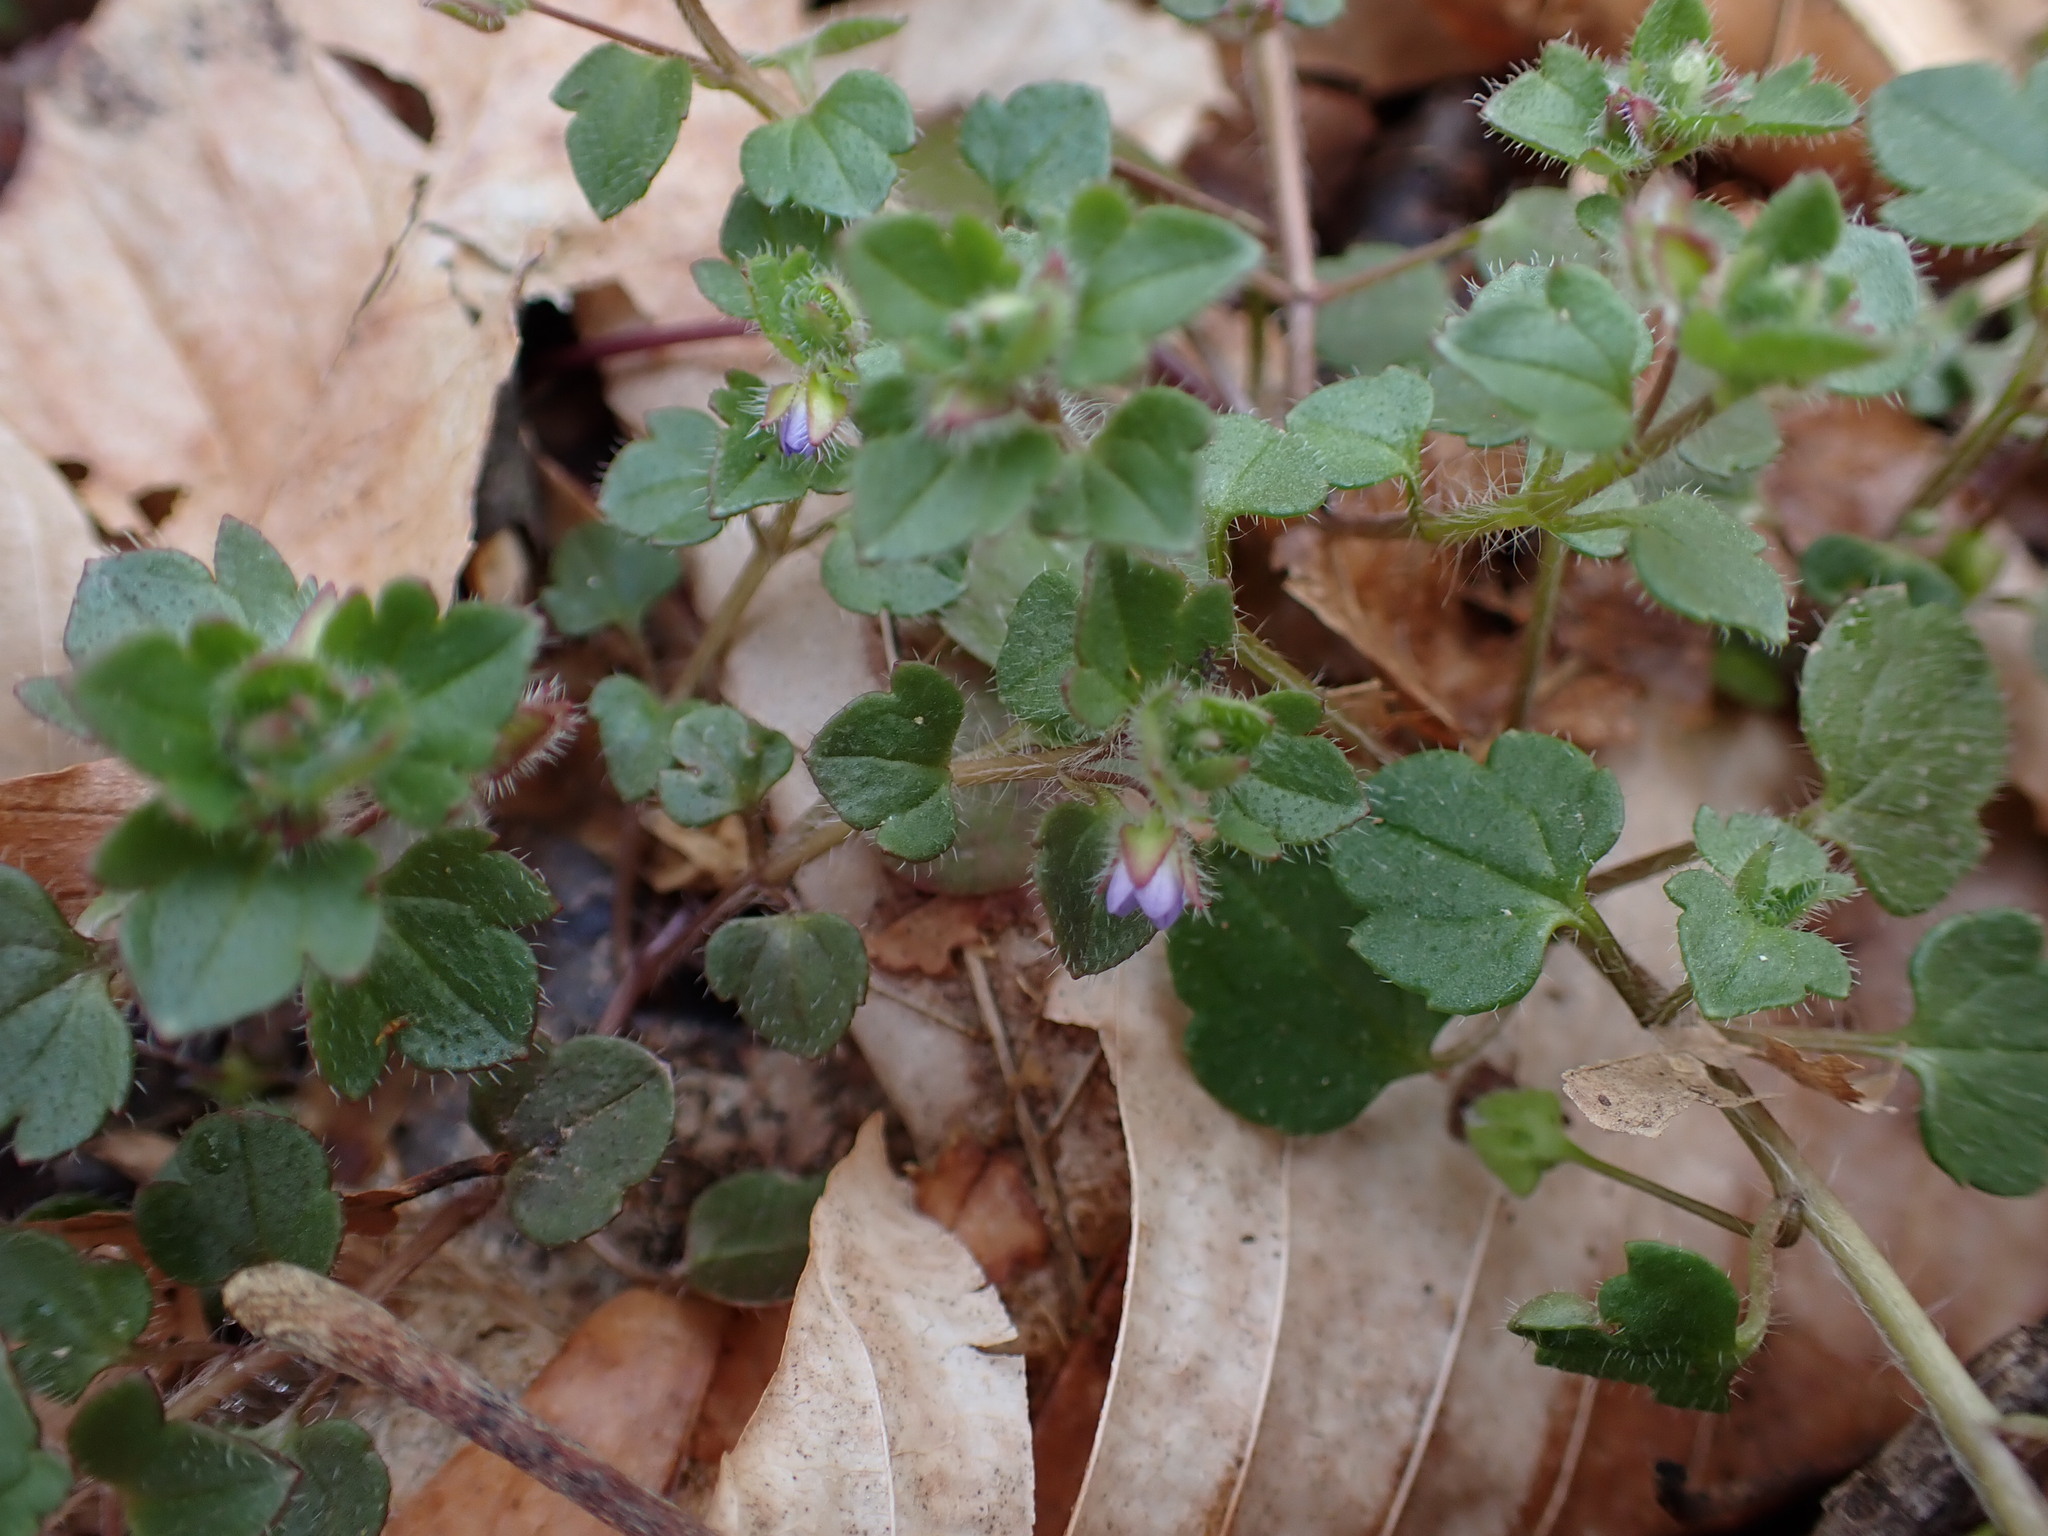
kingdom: Plantae
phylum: Tracheophyta
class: Magnoliopsida
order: Lamiales
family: Plantaginaceae
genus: Veronica
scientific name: Veronica hederifolia
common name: Ivy-leaved speedwell
